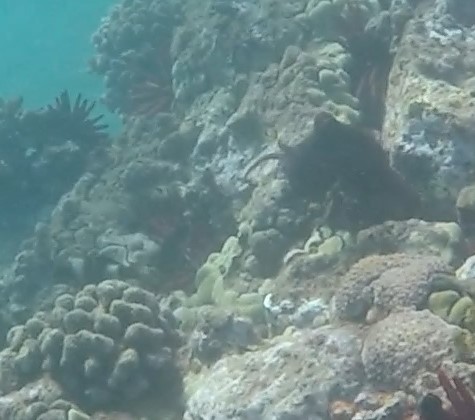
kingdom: Animalia
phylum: Mollusca
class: Cephalopoda
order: Octopoda
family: Octopodidae
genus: Octopus
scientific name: Octopus cyanea
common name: Cyane's octopus
